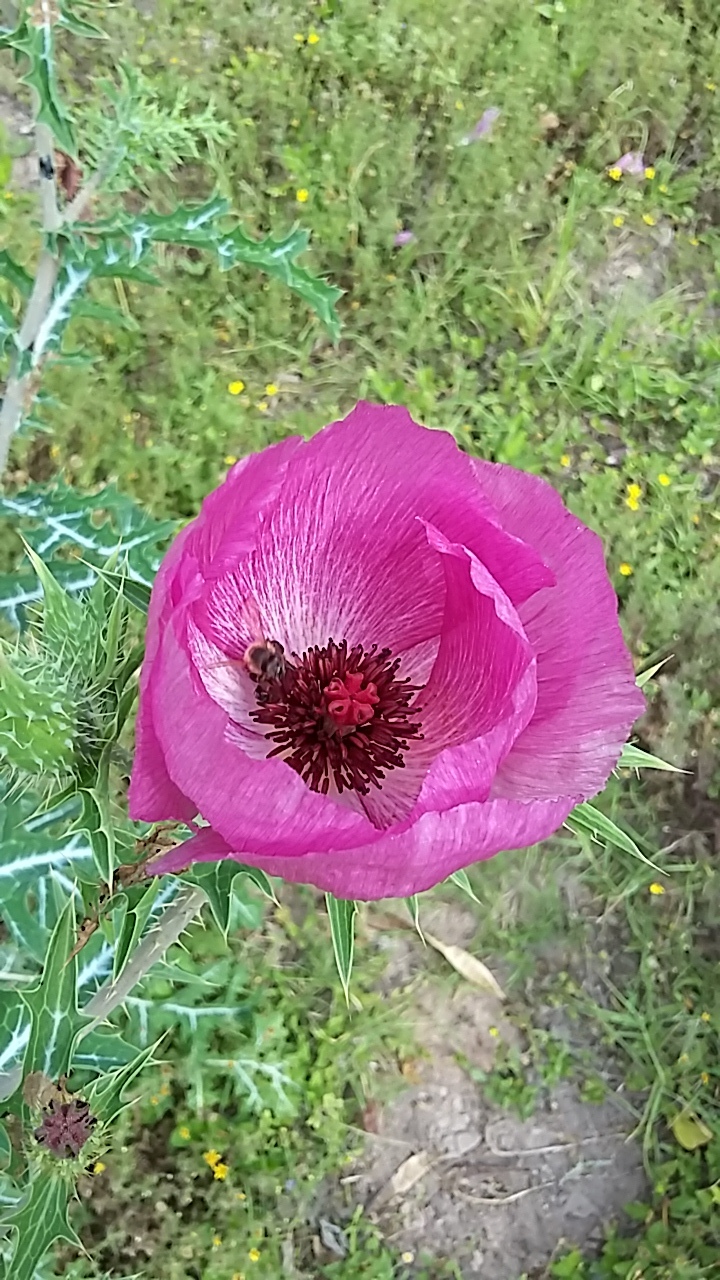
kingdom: Plantae
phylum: Tracheophyta
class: Magnoliopsida
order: Ranunculales
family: Papaveraceae
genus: Argemone
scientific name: Argemone sanguinea
